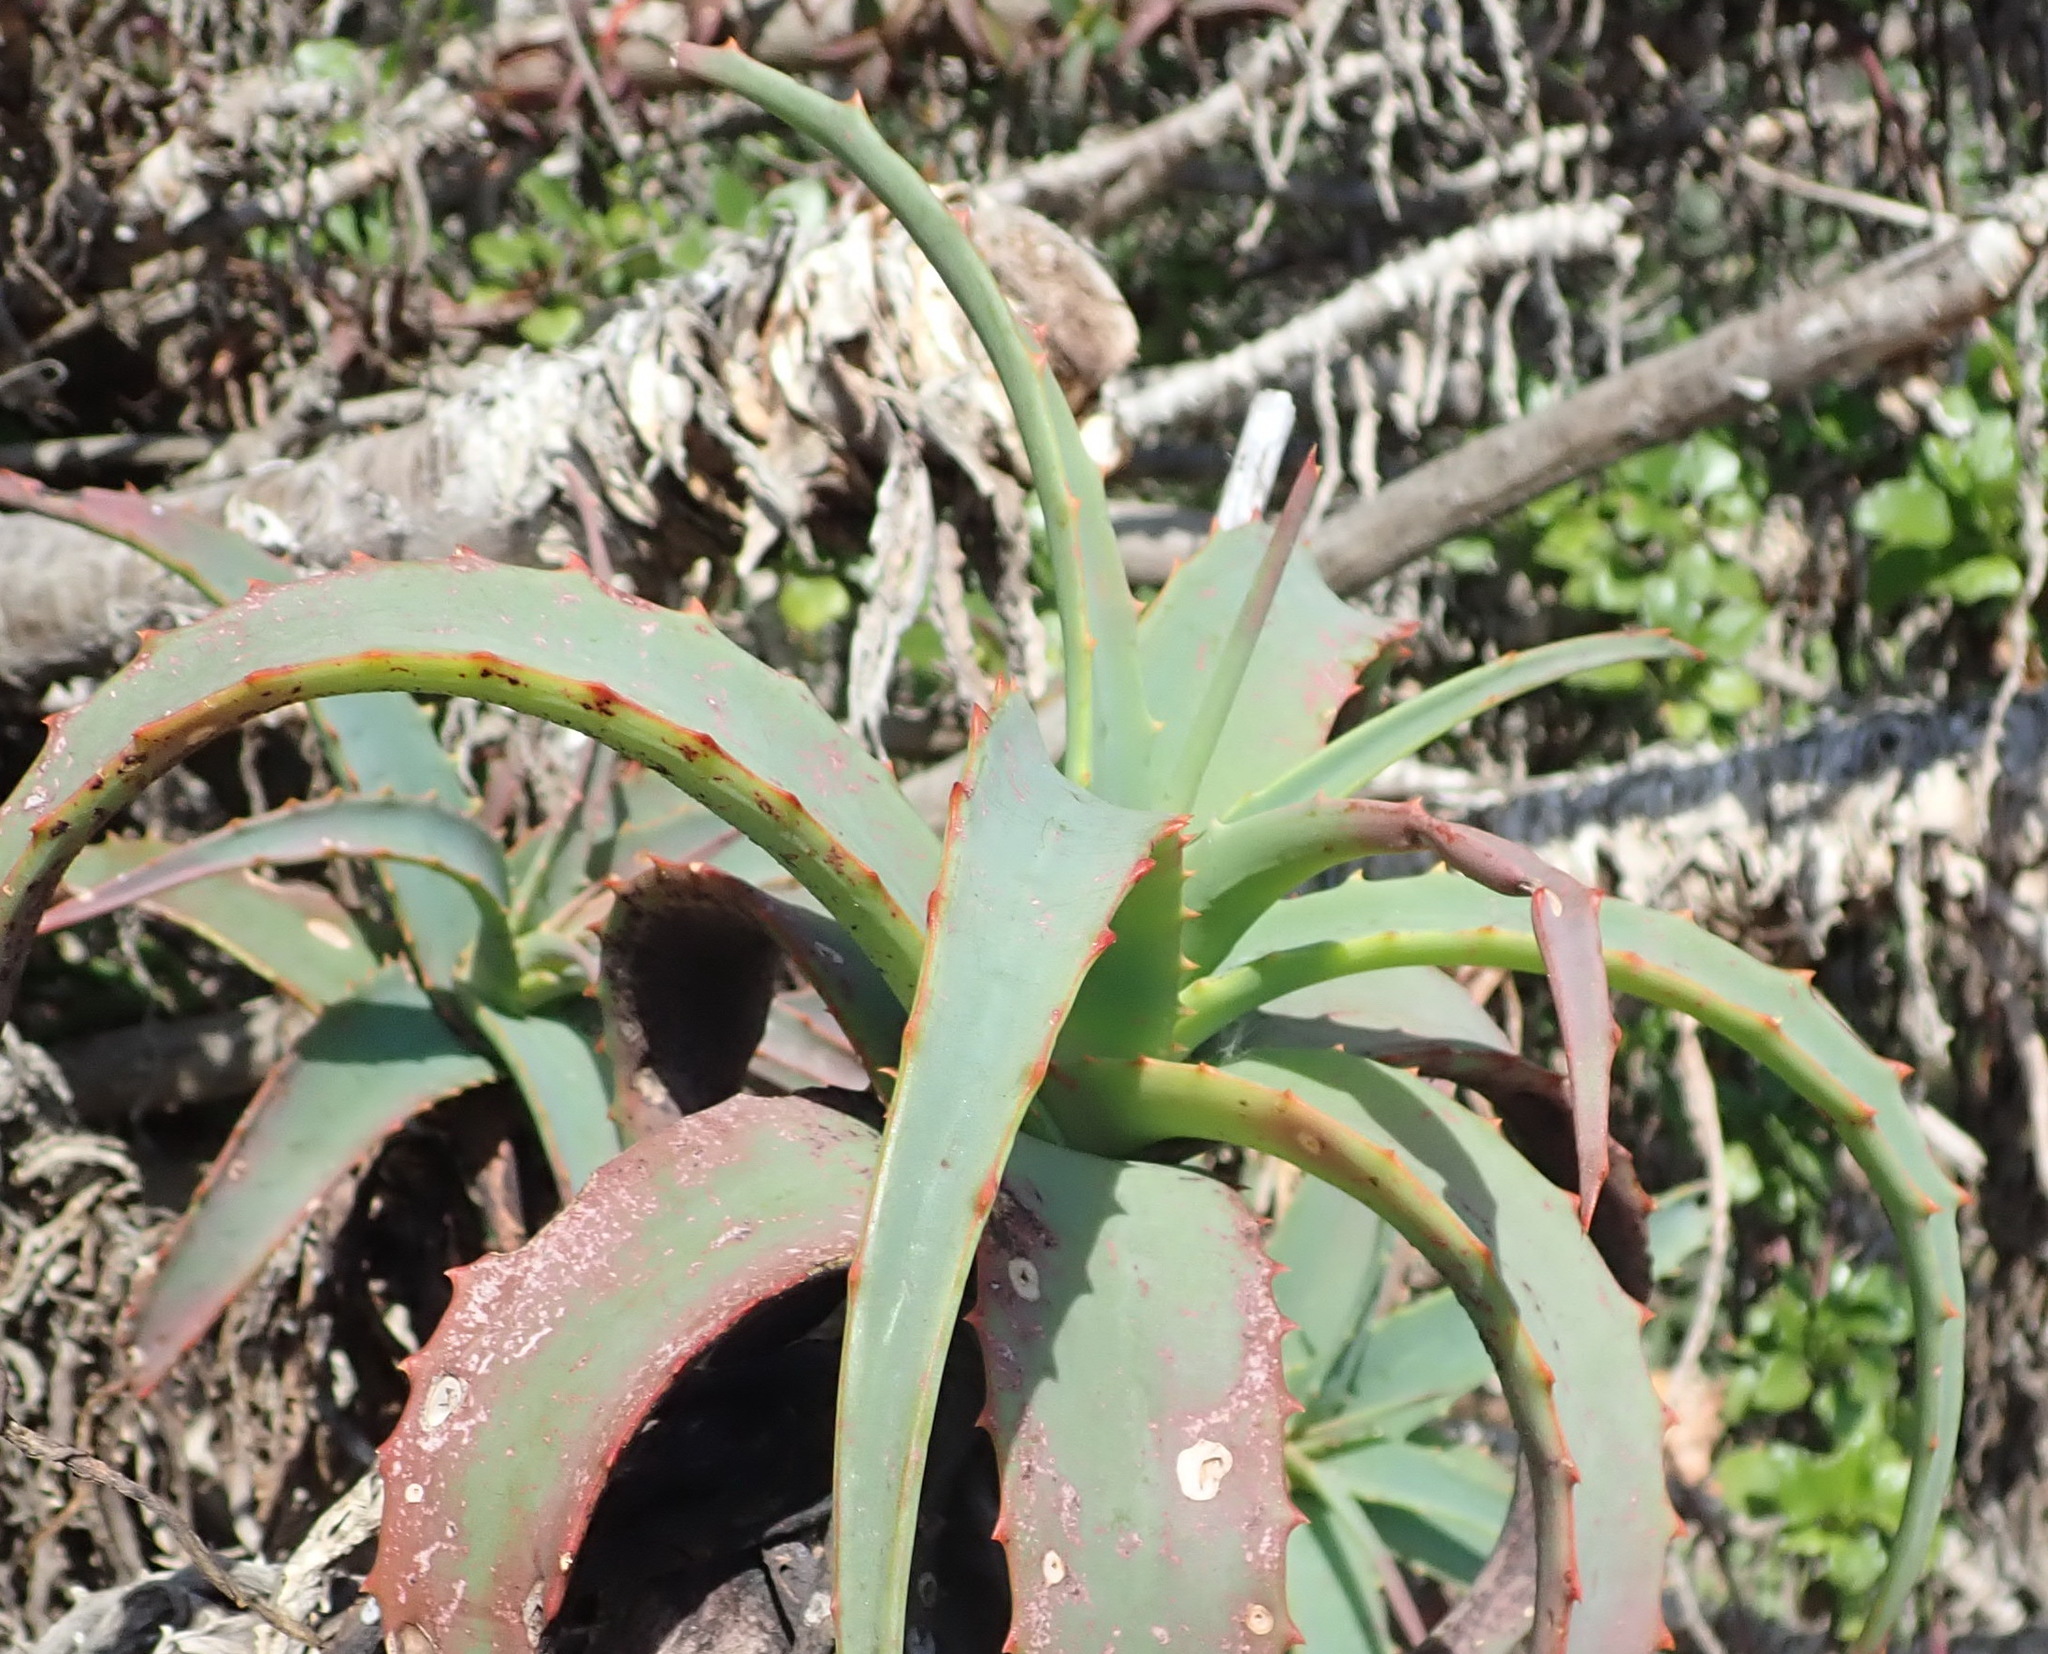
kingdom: Plantae
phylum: Tracheophyta
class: Liliopsida
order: Asparagales
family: Asphodelaceae
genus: Aloe
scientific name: Aloe arborescens
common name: Candelabra aloe
